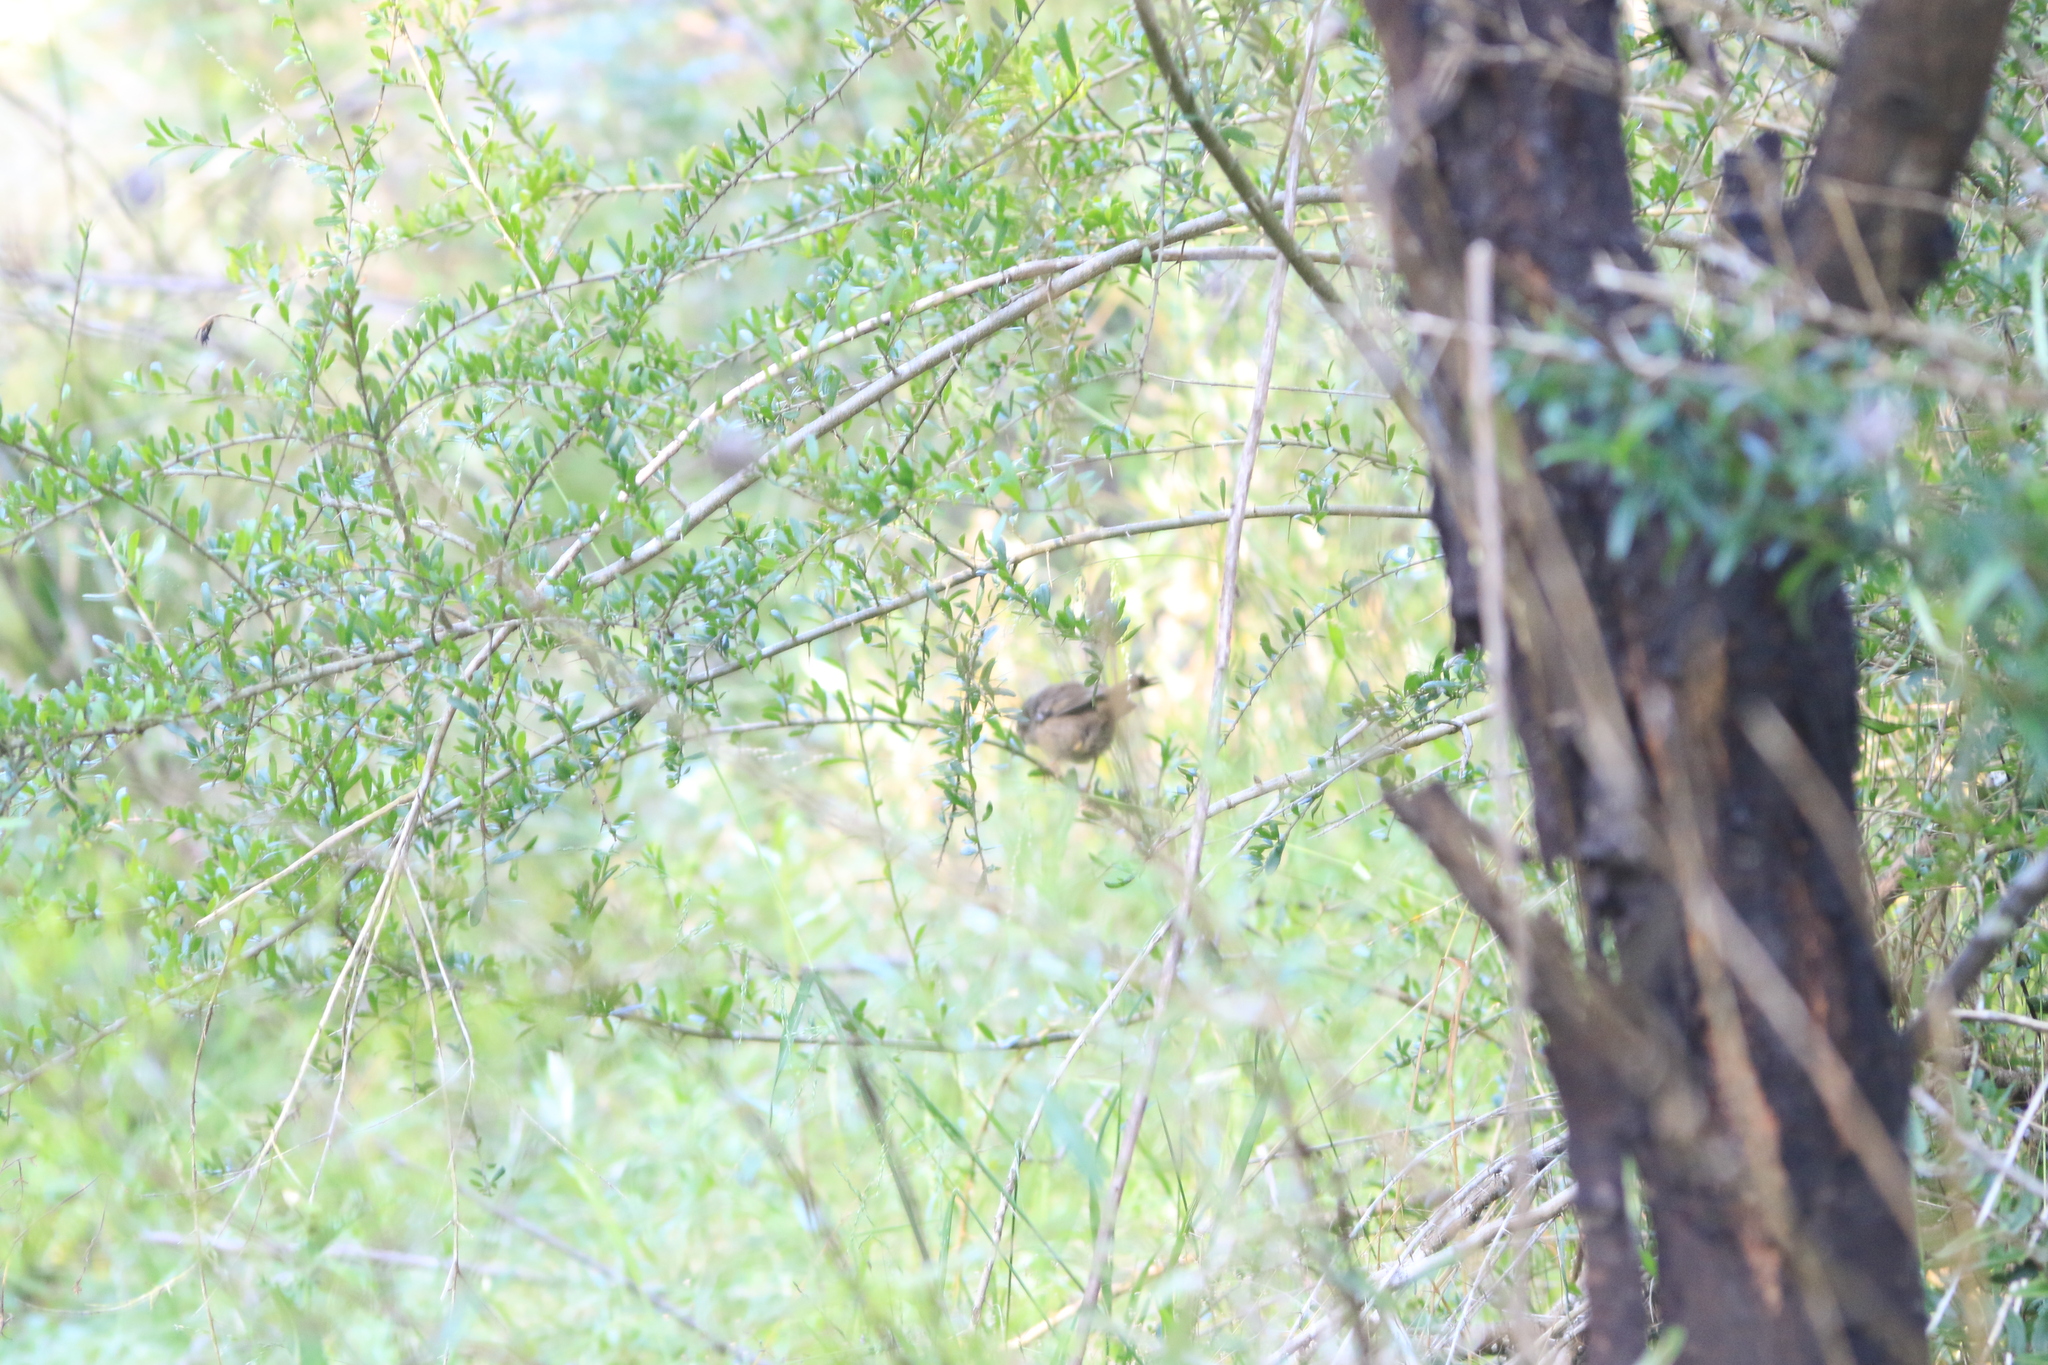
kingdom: Animalia
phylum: Chordata
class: Aves
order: Passeriformes
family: Acanthizidae
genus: Sericornis
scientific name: Sericornis frontalis
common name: White-browed scrubwren
